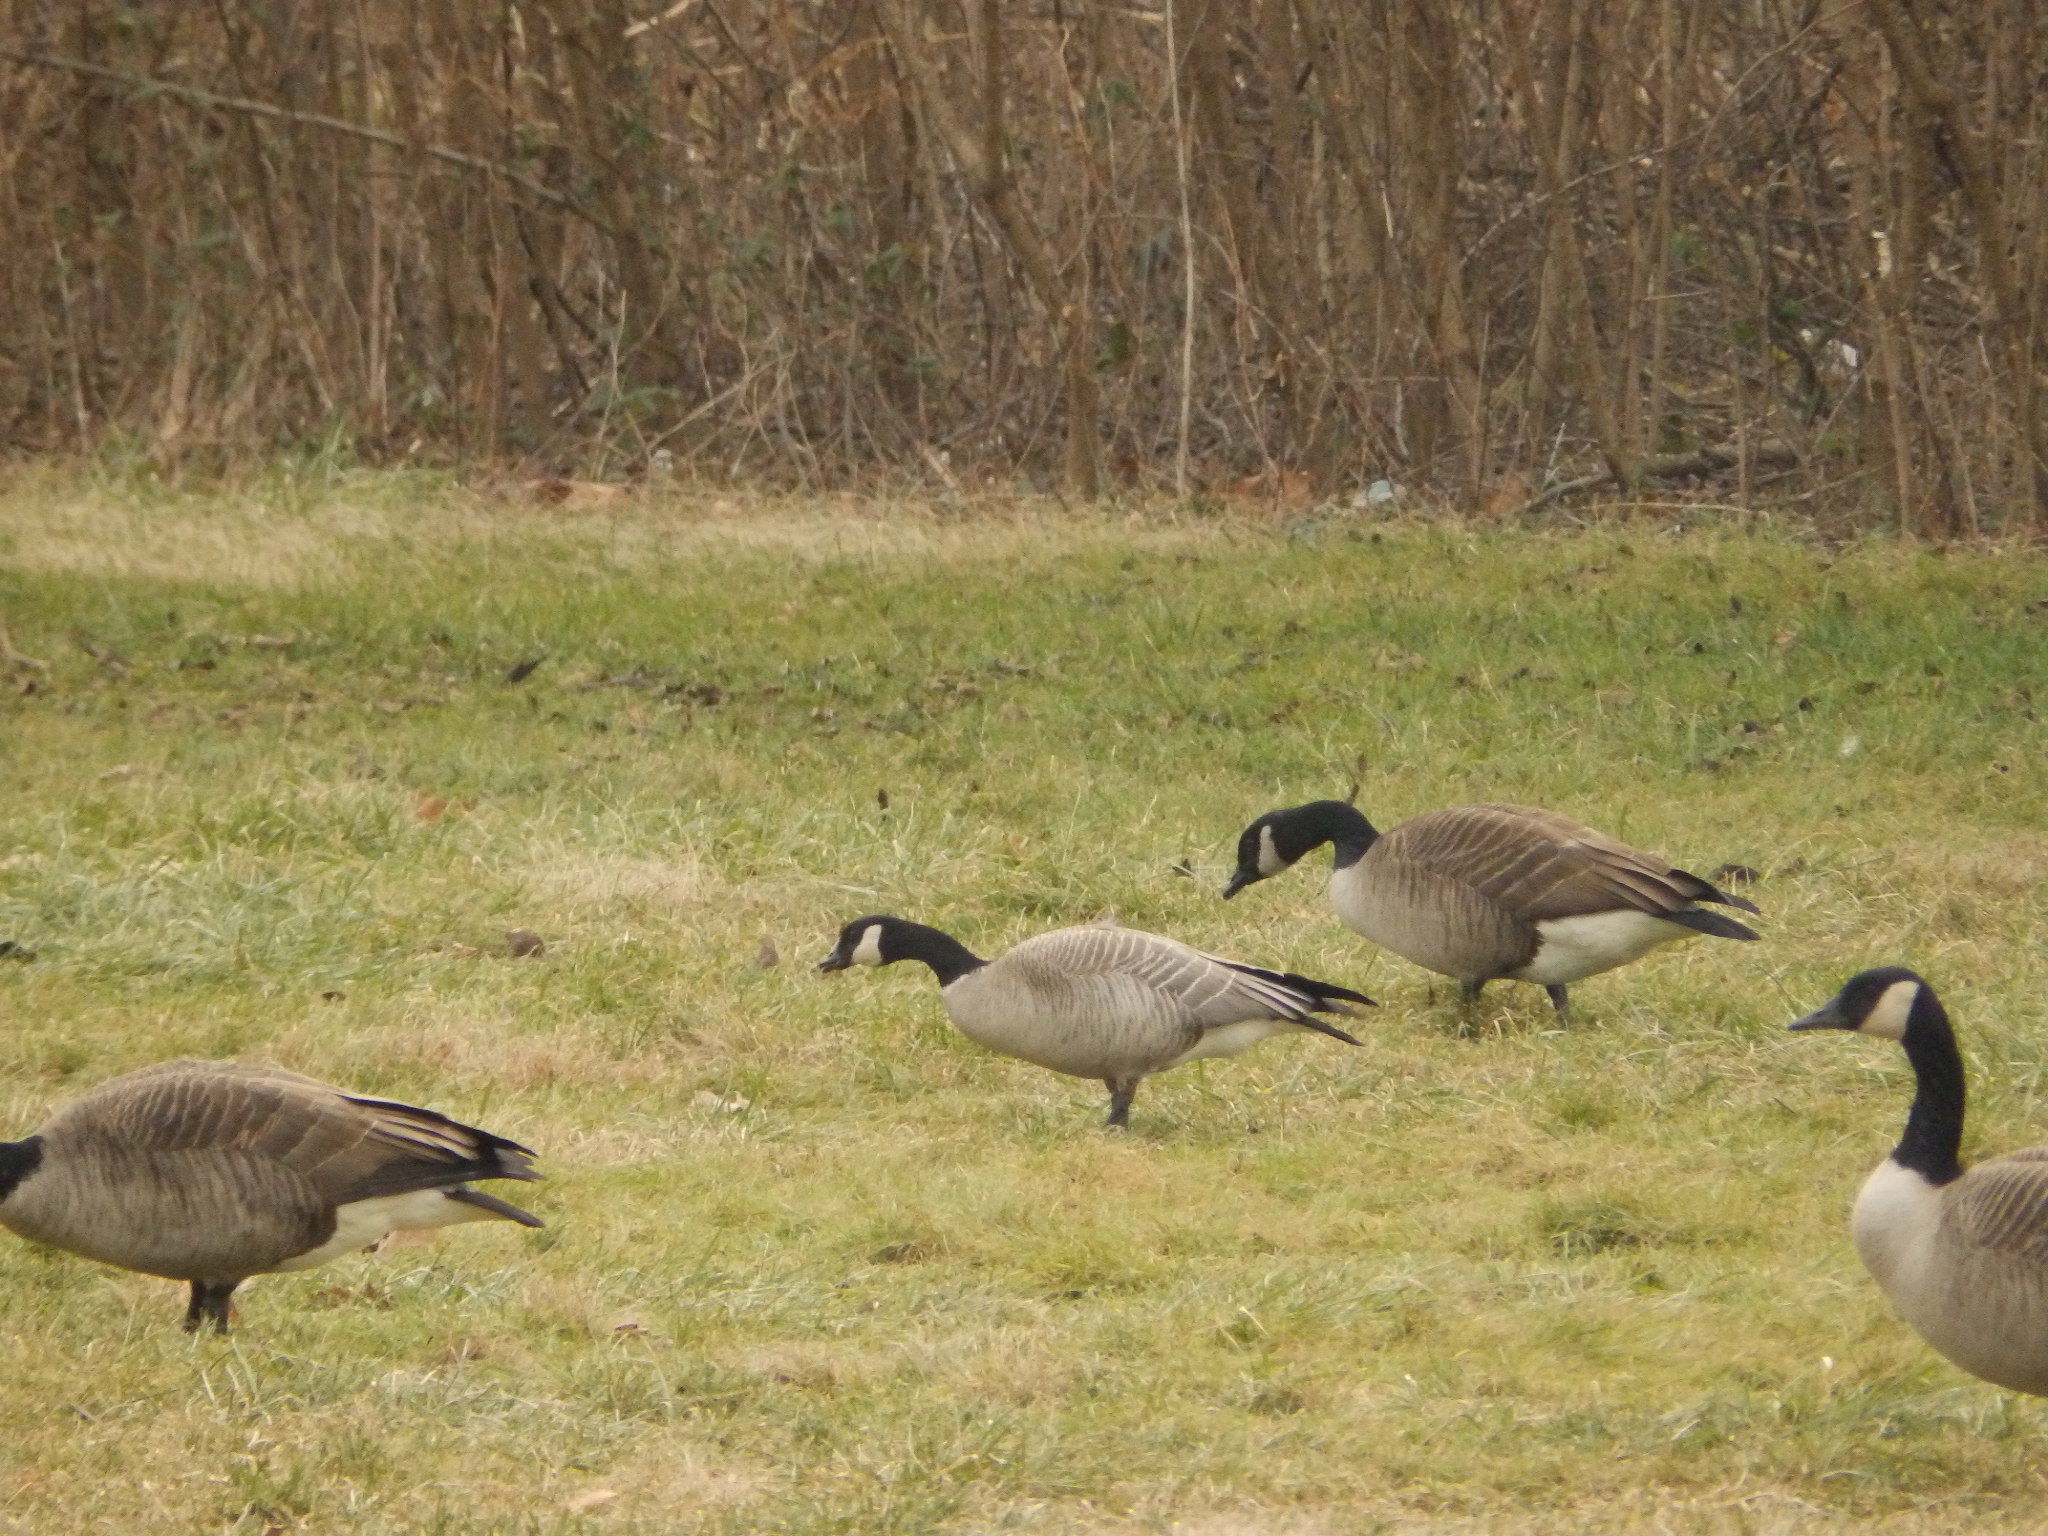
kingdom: Animalia
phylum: Chordata
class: Aves
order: Anseriformes
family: Anatidae
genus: Branta
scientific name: Branta hutchinsii
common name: Cackling goose
